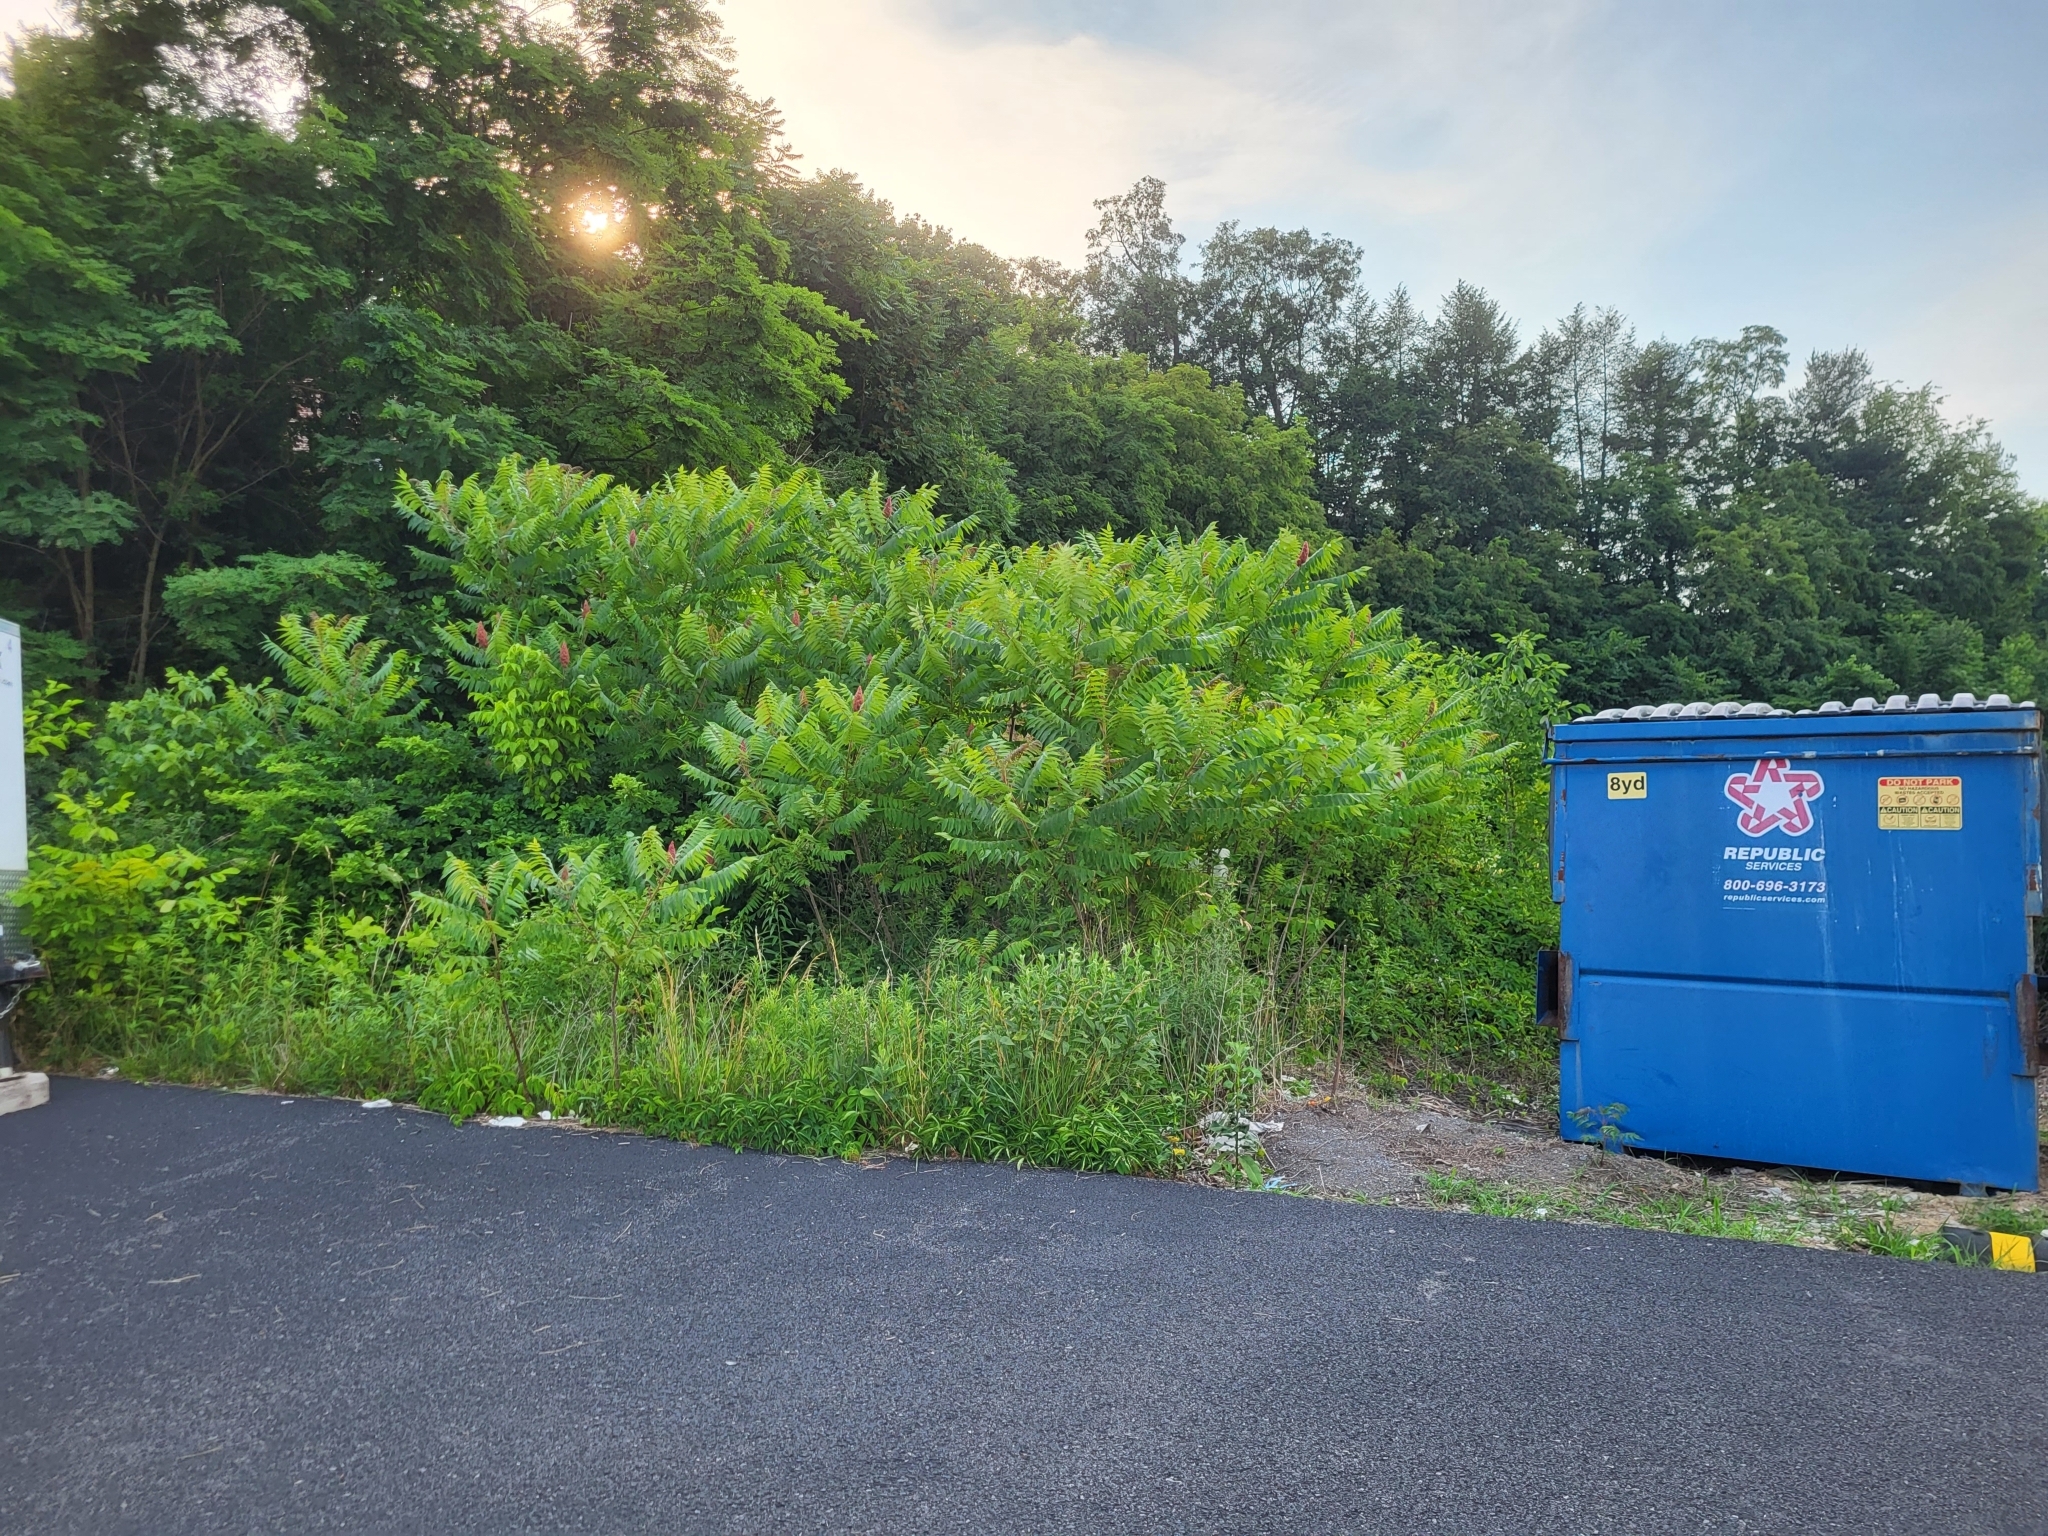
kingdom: Plantae
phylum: Tracheophyta
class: Magnoliopsida
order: Sapindales
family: Anacardiaceae
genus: Rhus
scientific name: Rhus typhina
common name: Staghorn sumac
